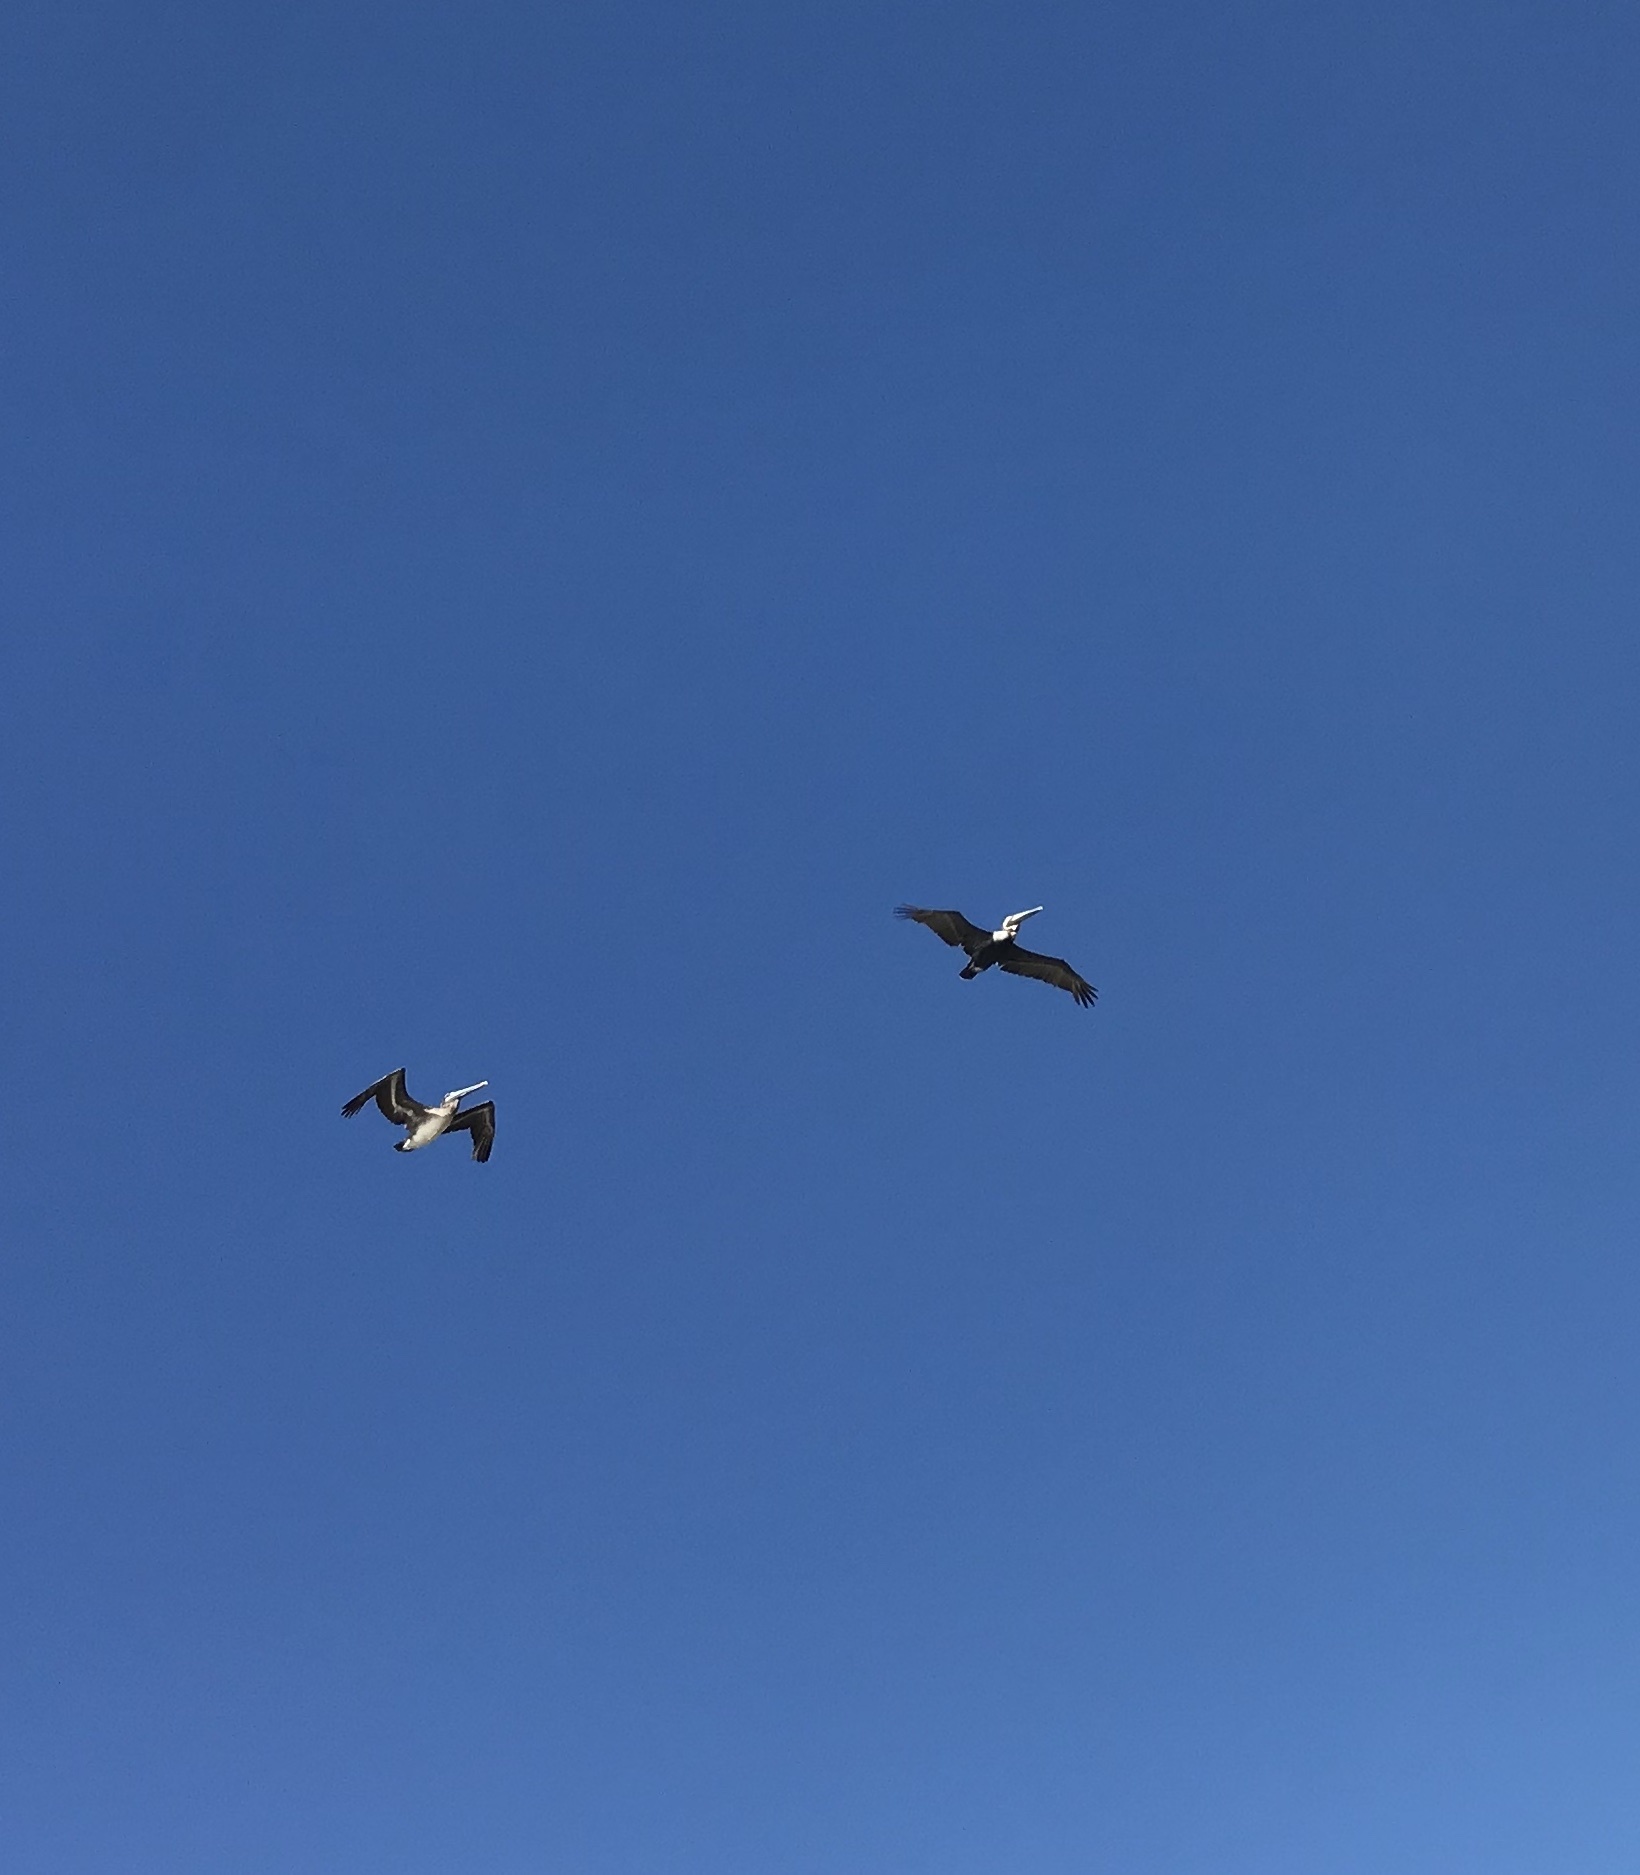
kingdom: Animalia
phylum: Chordata
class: Aves
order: Pelecaniformes
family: Pelecanidae
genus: Pelecanus
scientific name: Pelecanus occidentalis
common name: Brown pelican
